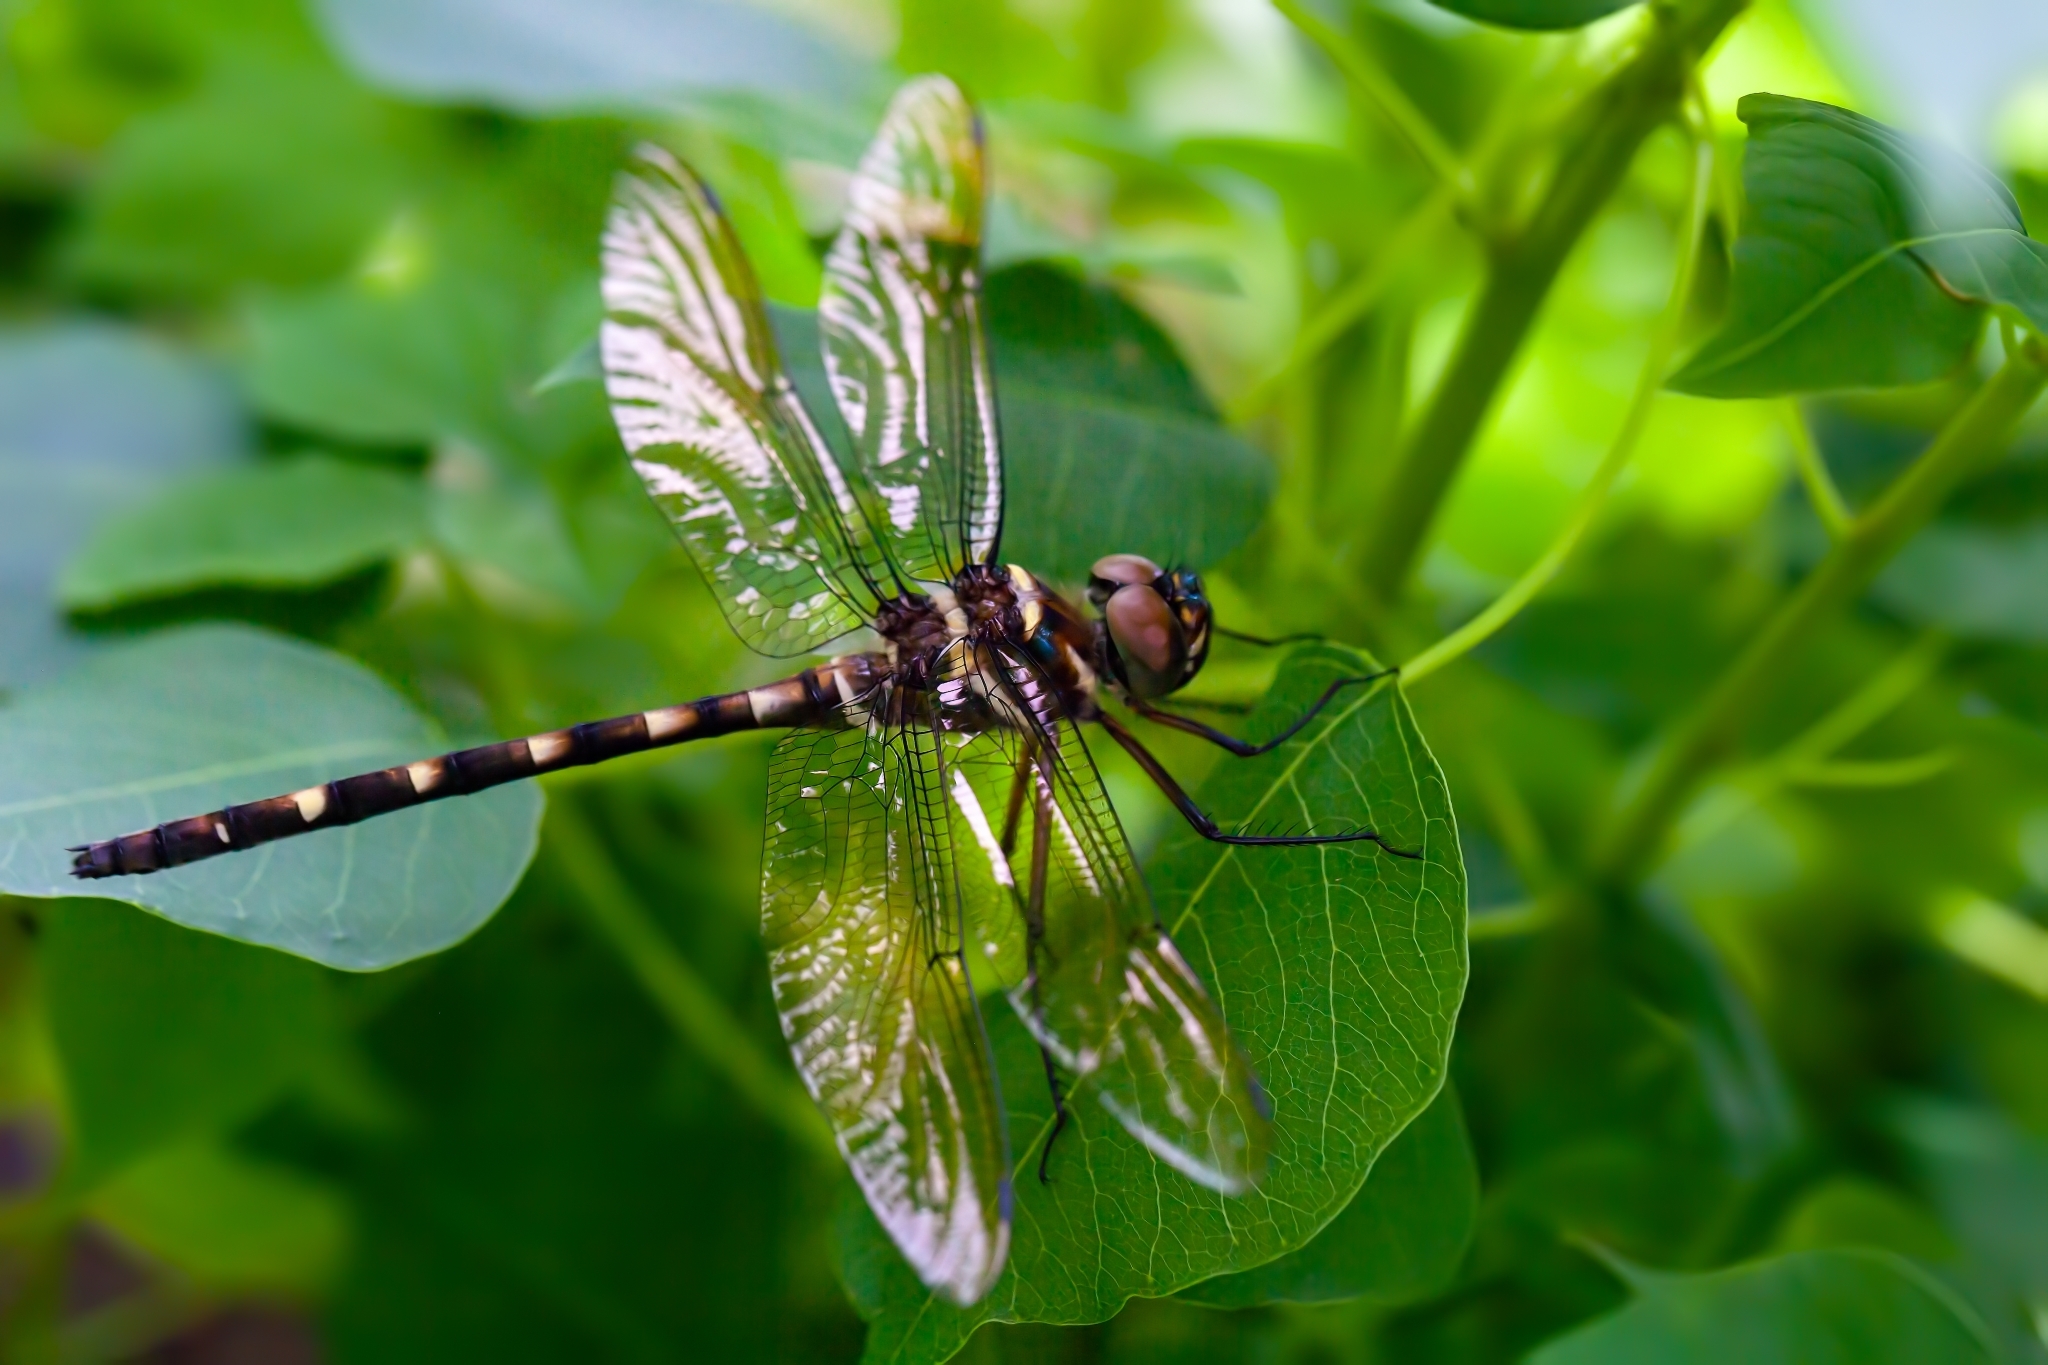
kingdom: Animalia
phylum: Arthropoda
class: Insecta
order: Odonata
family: Macromiidae
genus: Macromia
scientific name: Macromia taeniolata
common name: Royal river cruiser
